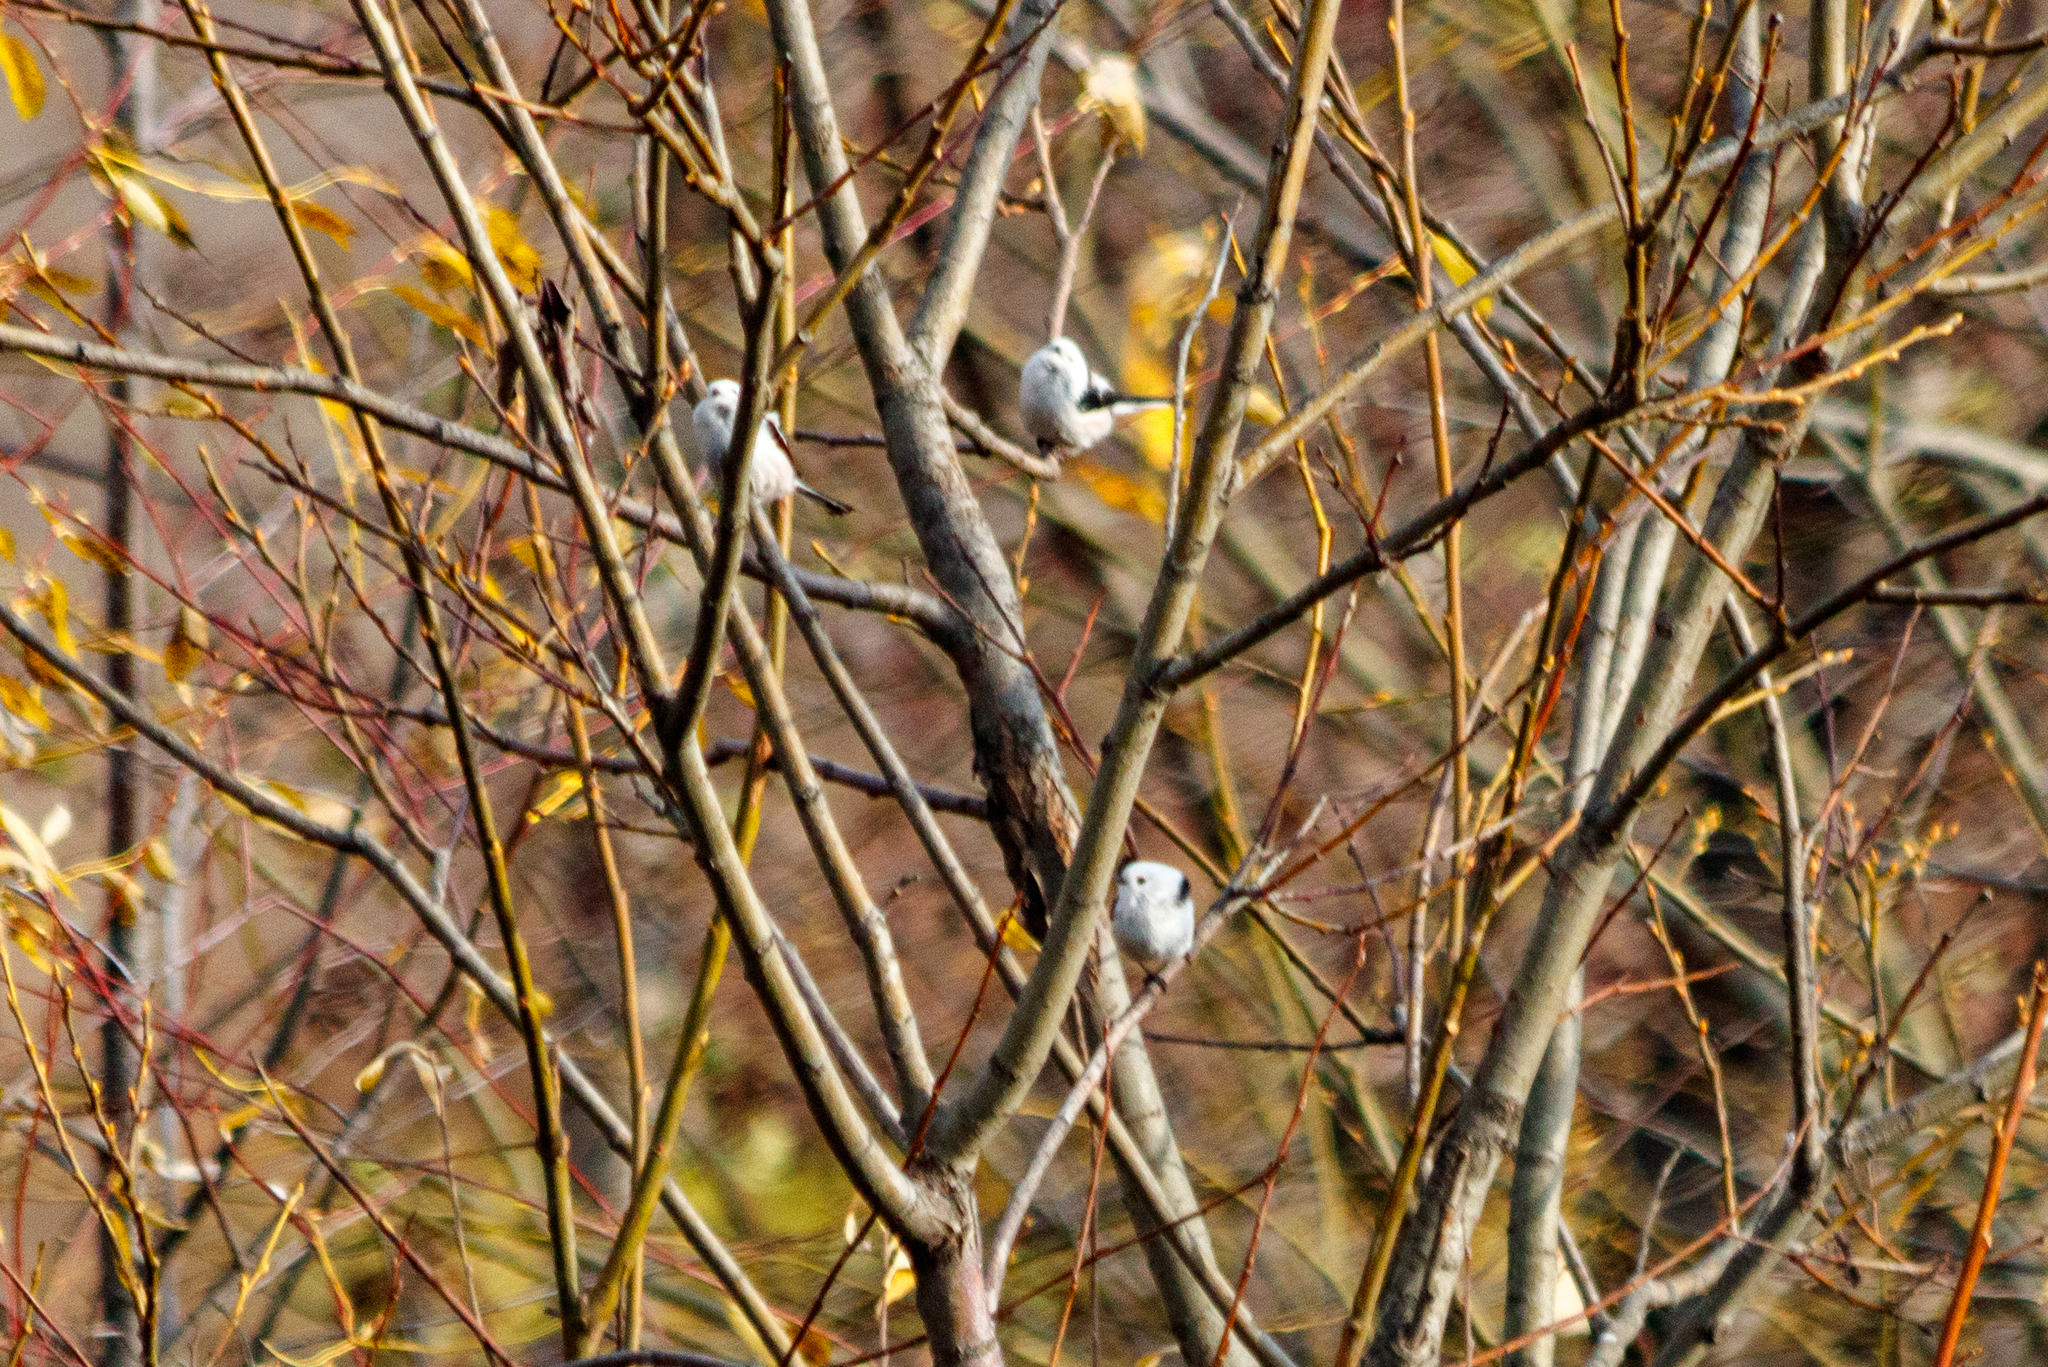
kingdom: Animalia
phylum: Chordata
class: Aves
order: Passeriformes
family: Aegithalidae
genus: Aegithalos
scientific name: Aegithalos caudatus
